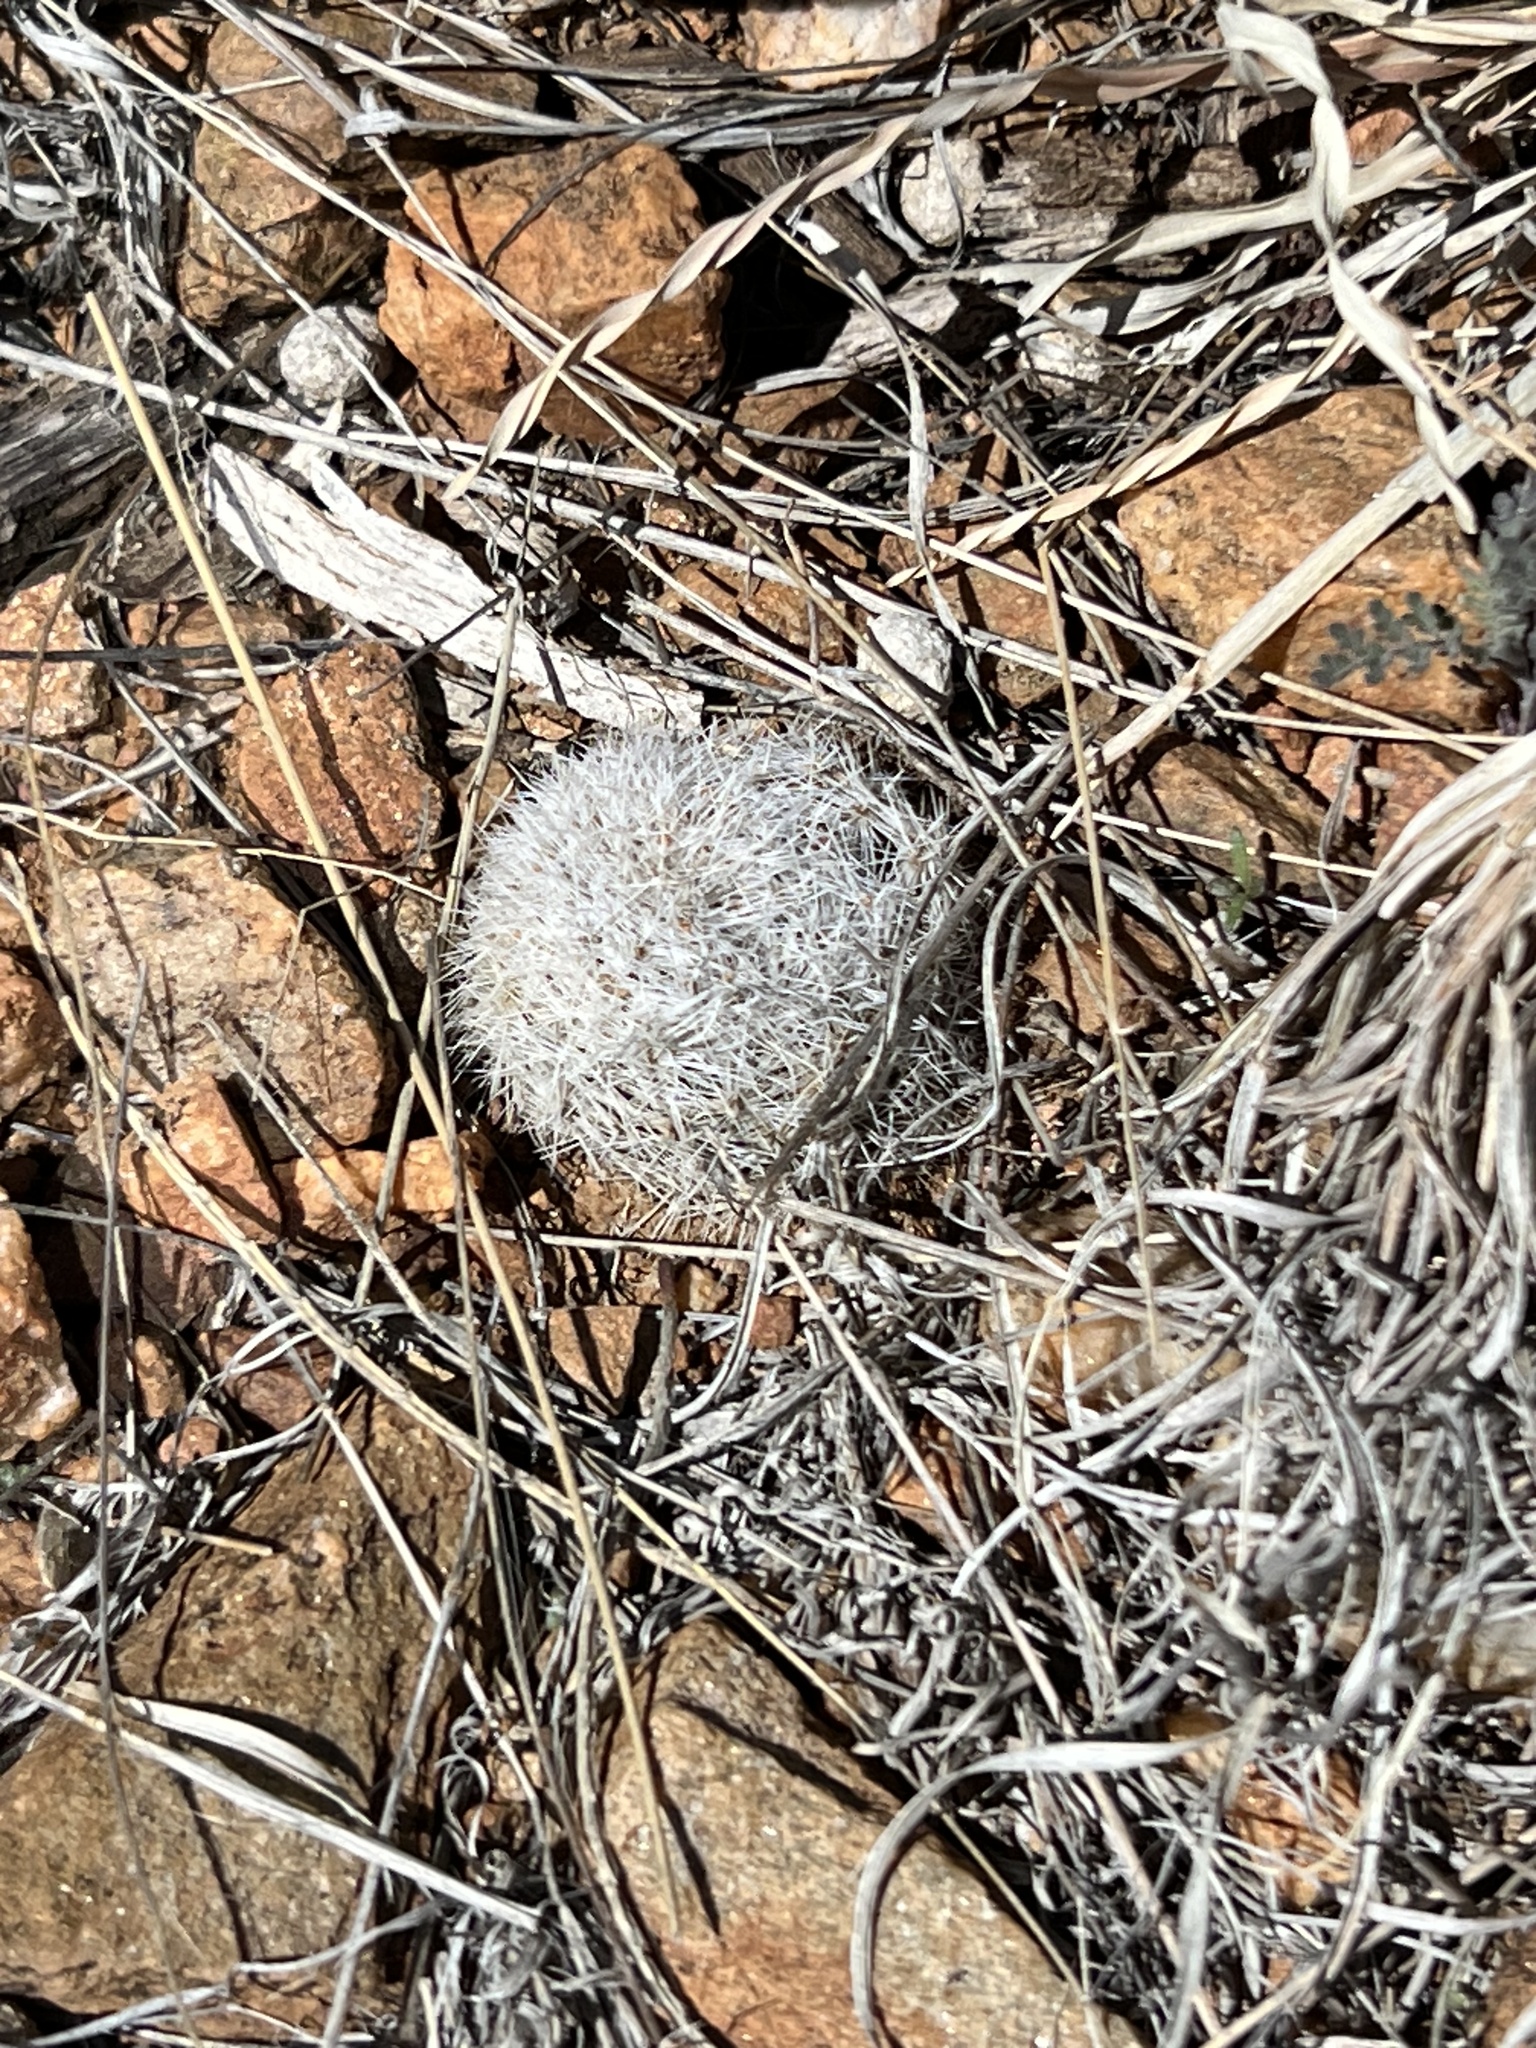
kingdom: Plantae
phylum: Tracheophyta
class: Magnoliopsida
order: Caryophyllales
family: Cactaceae
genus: Cochemiea
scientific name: Cochemiea grahamii
